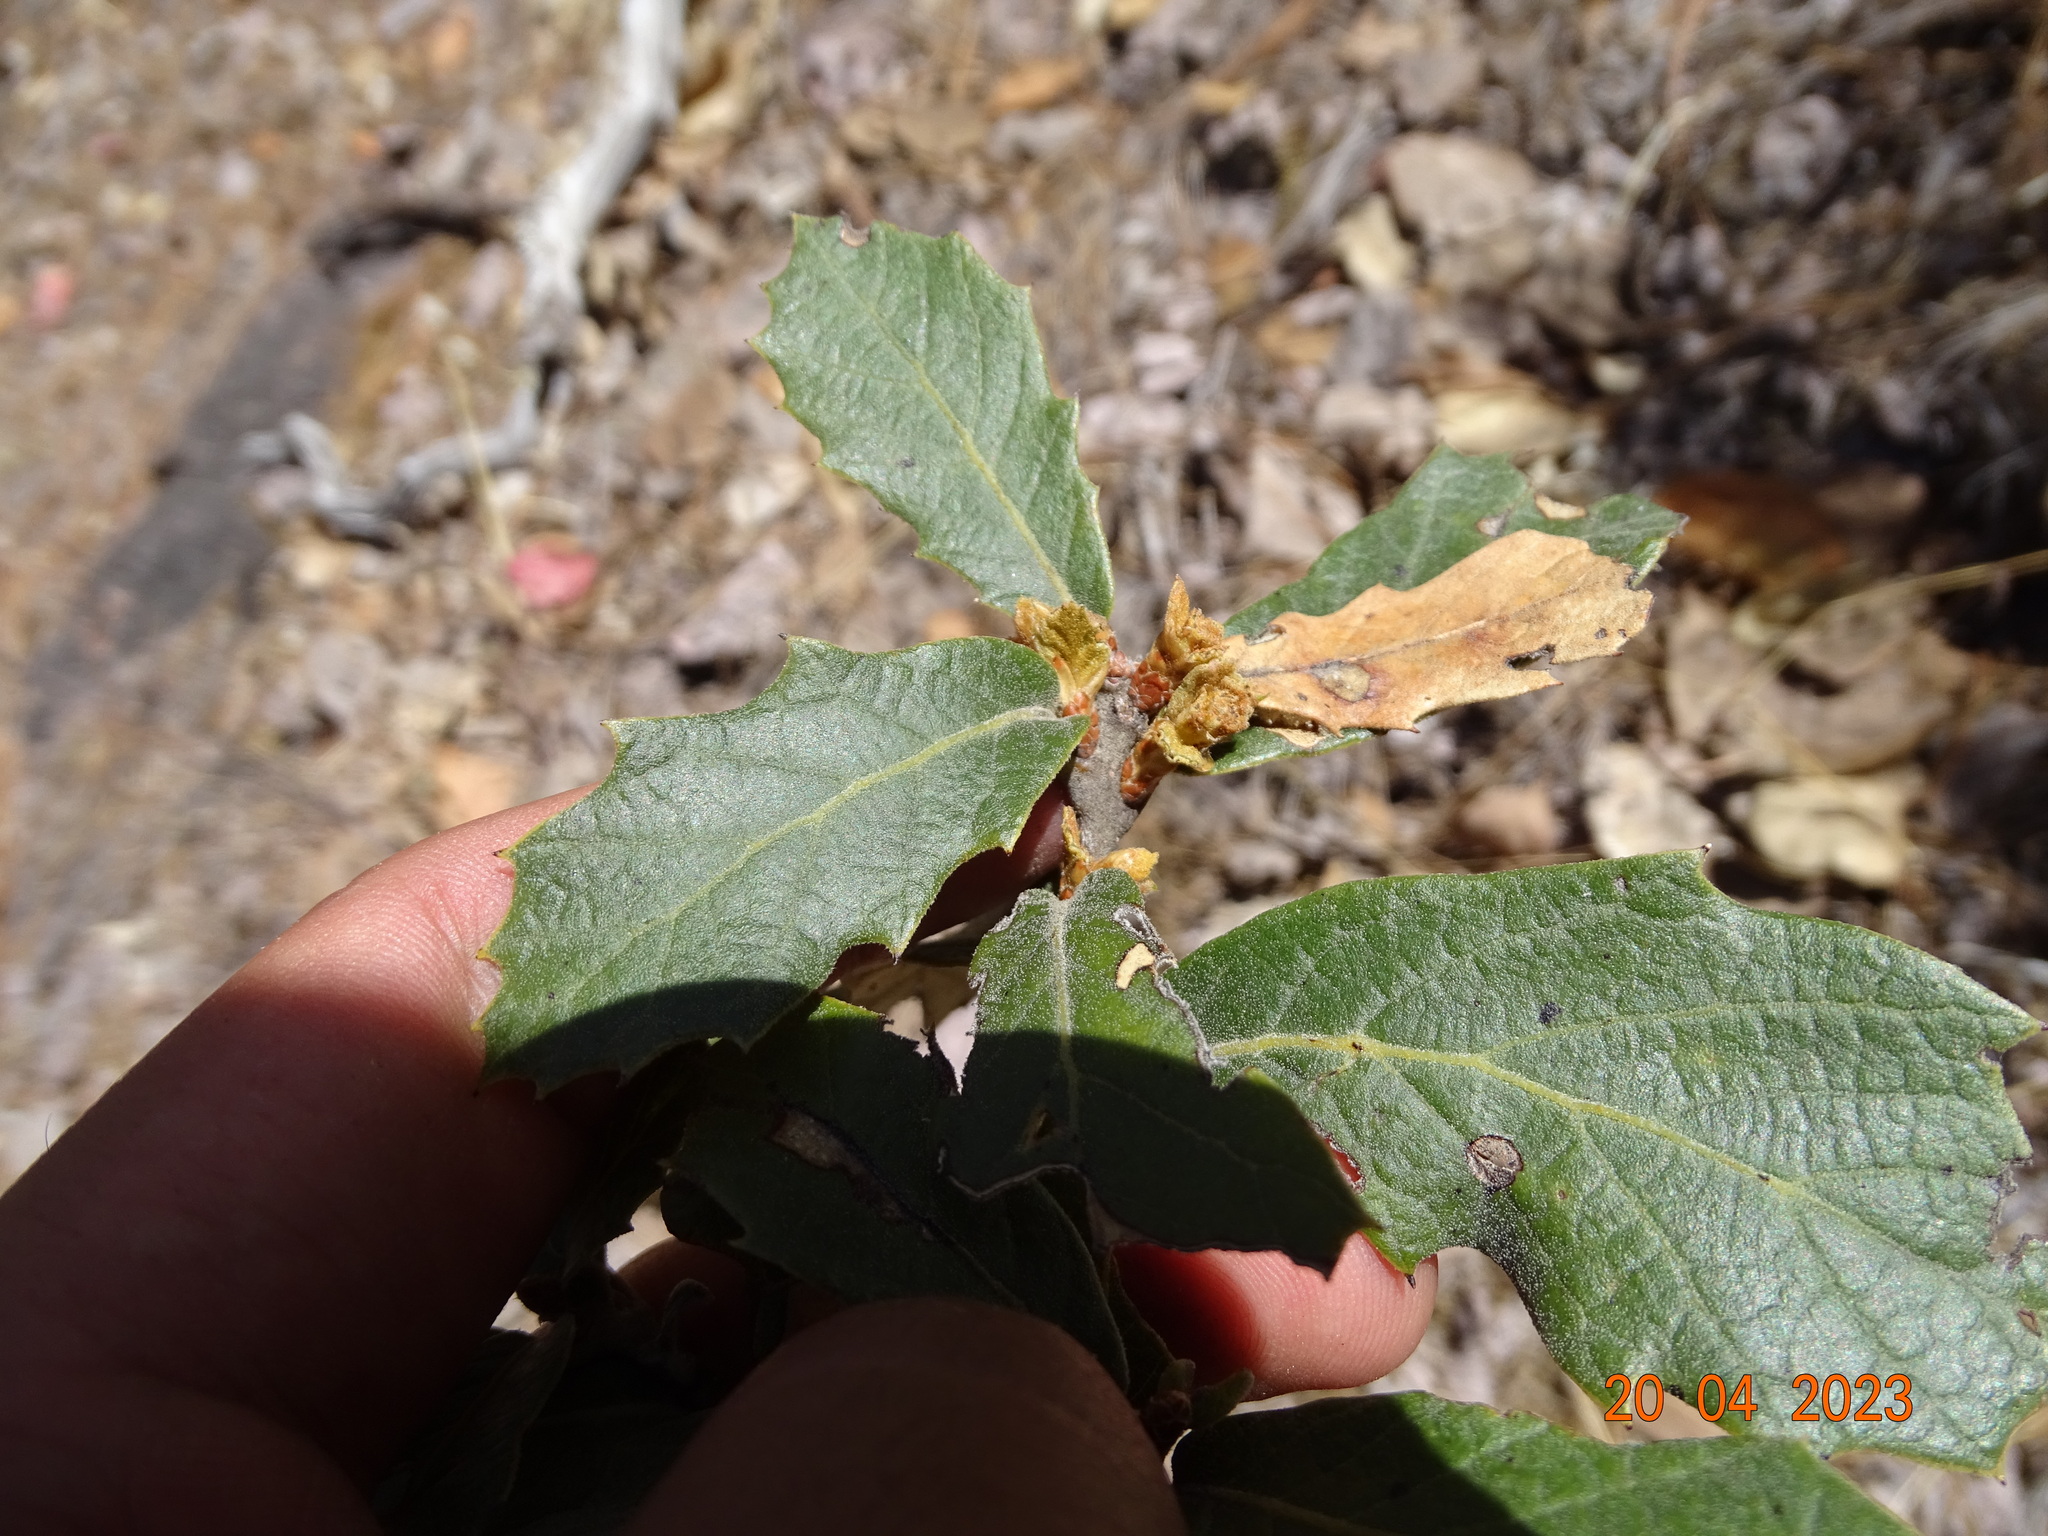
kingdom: Plantae
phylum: Tracheophyta
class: Magnoliopsida
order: Fagales
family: Fagaceae
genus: Quercus
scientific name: Quercus sideroxyla
